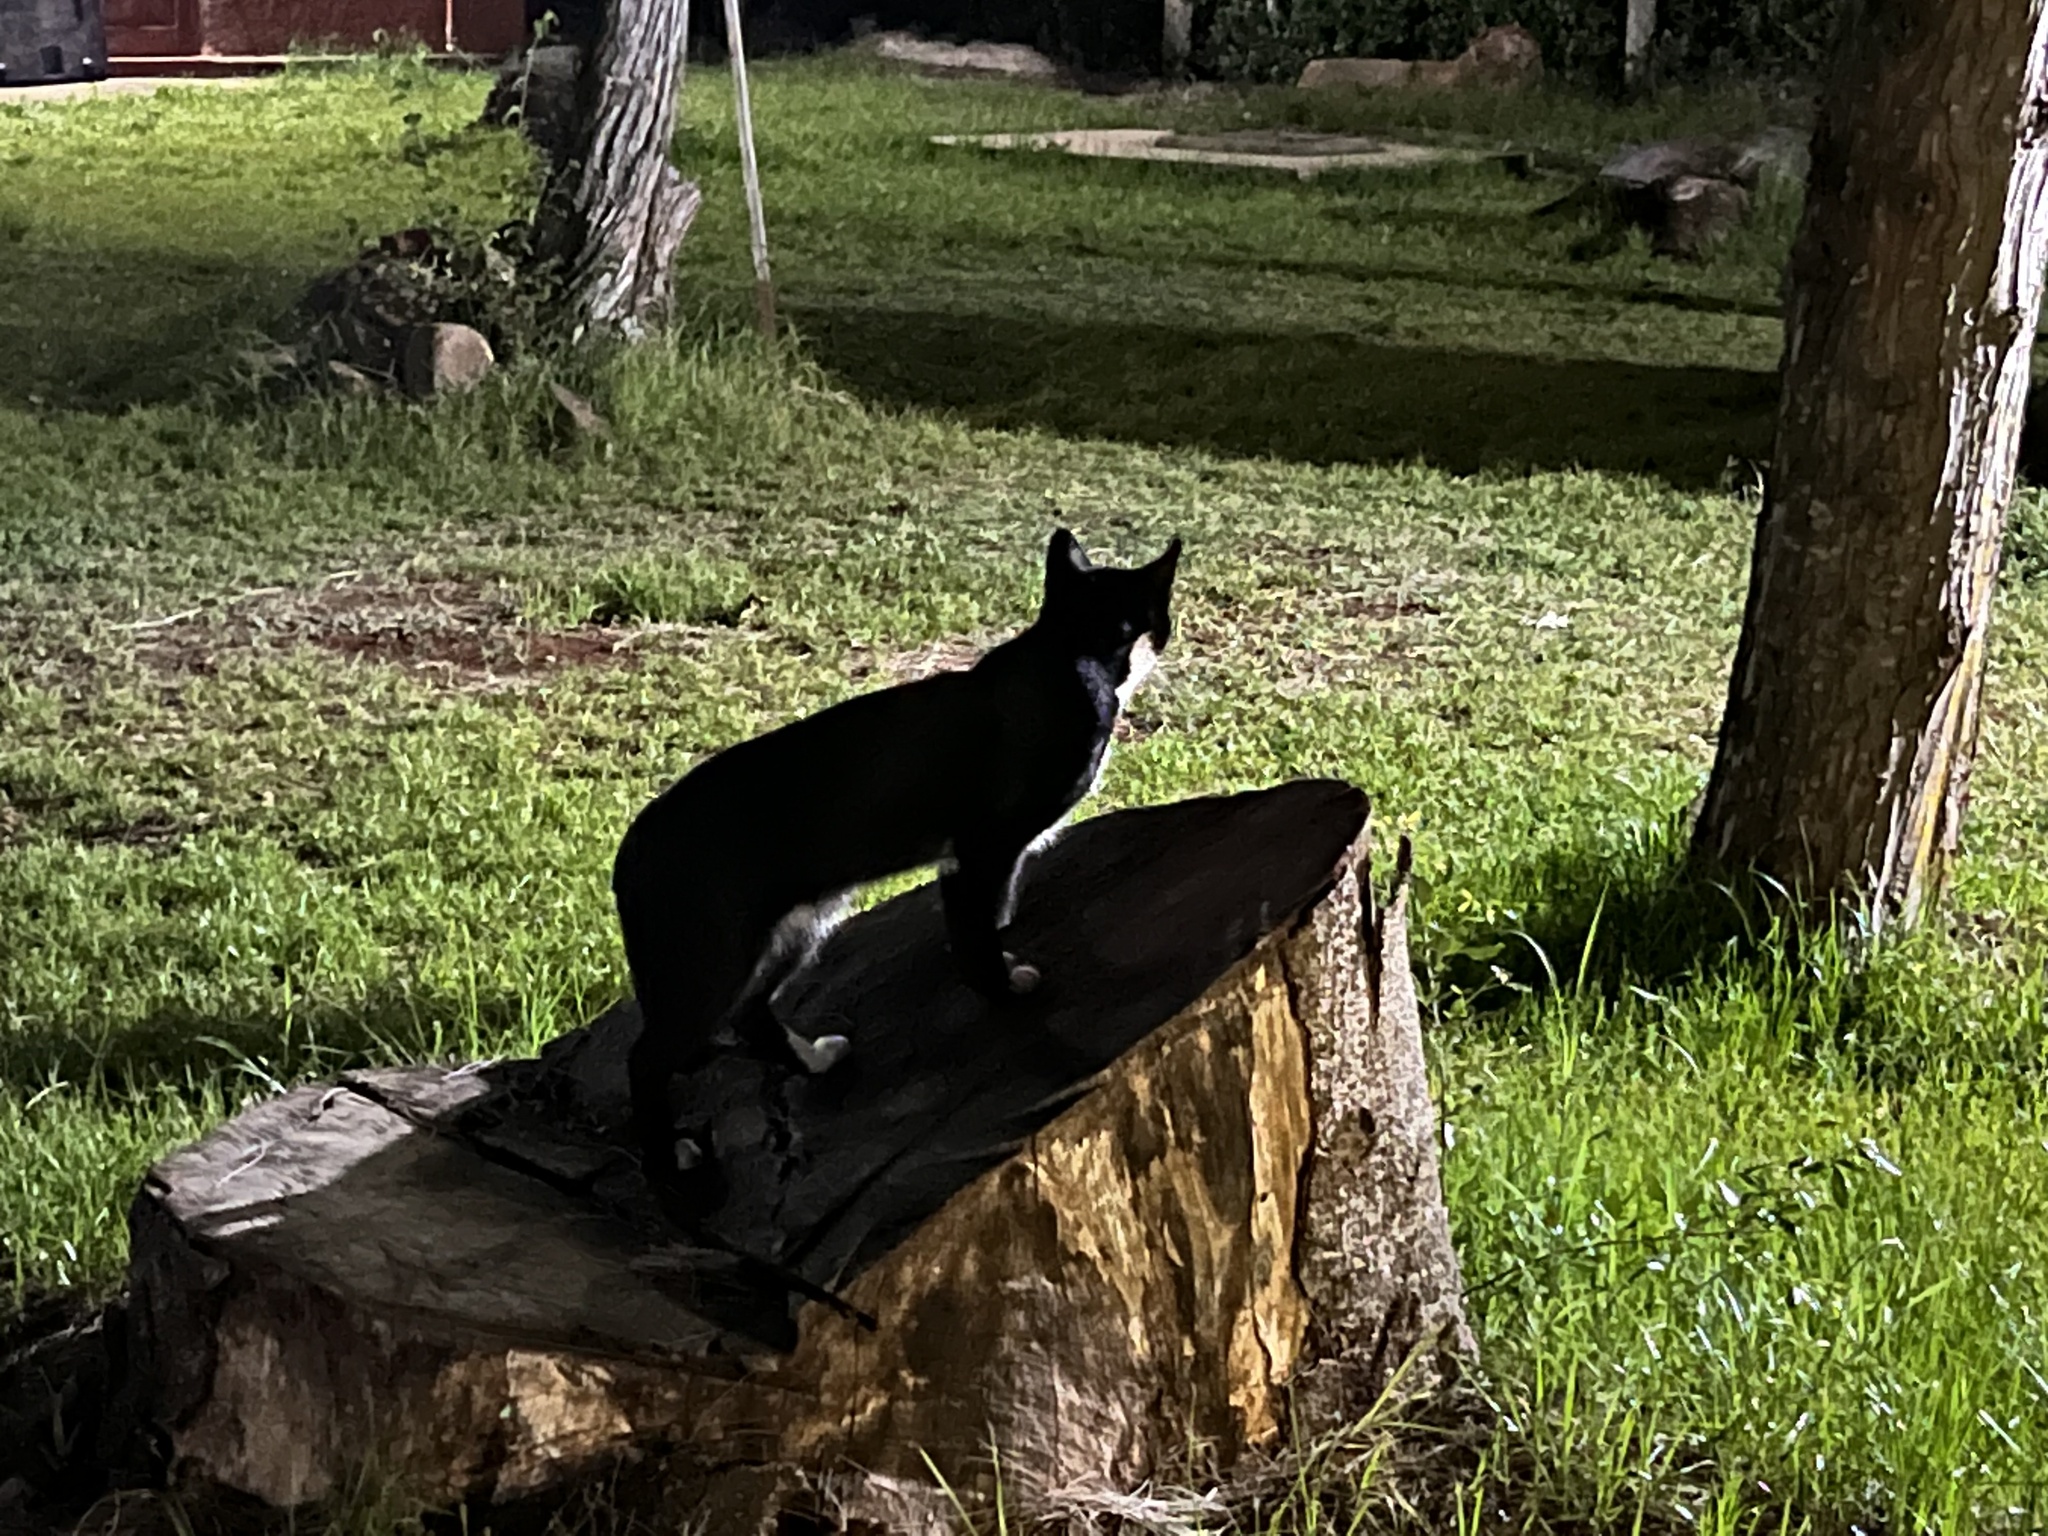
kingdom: Animalia
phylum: Chordata
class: Mammalia
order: Carnivora
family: Felidae
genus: Felis
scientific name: Felis catus
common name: Domestic cat
